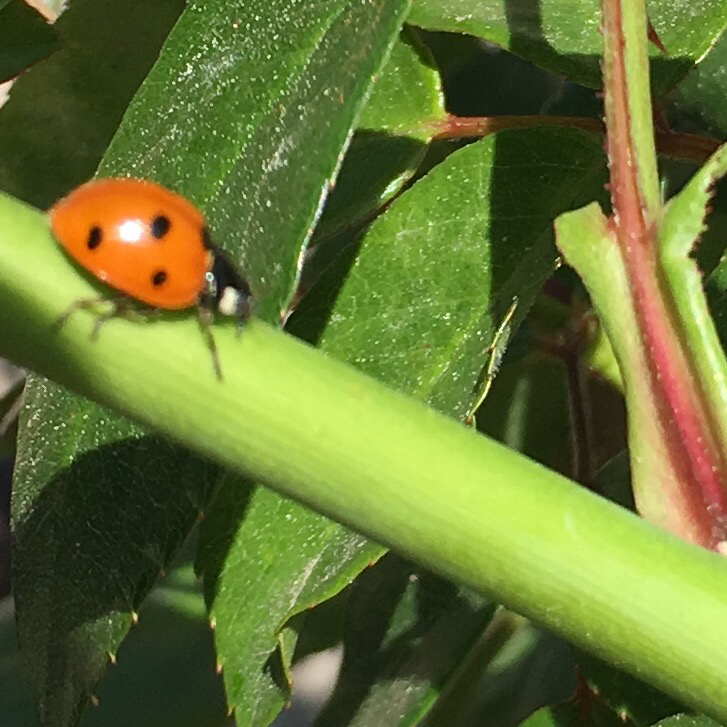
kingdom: Animalia
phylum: Arthropoda
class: Insecta
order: Coleoptera
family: Coccinellidae
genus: Coccinella
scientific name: Coccinella septempunctata
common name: Sevenspotted lady beetle
